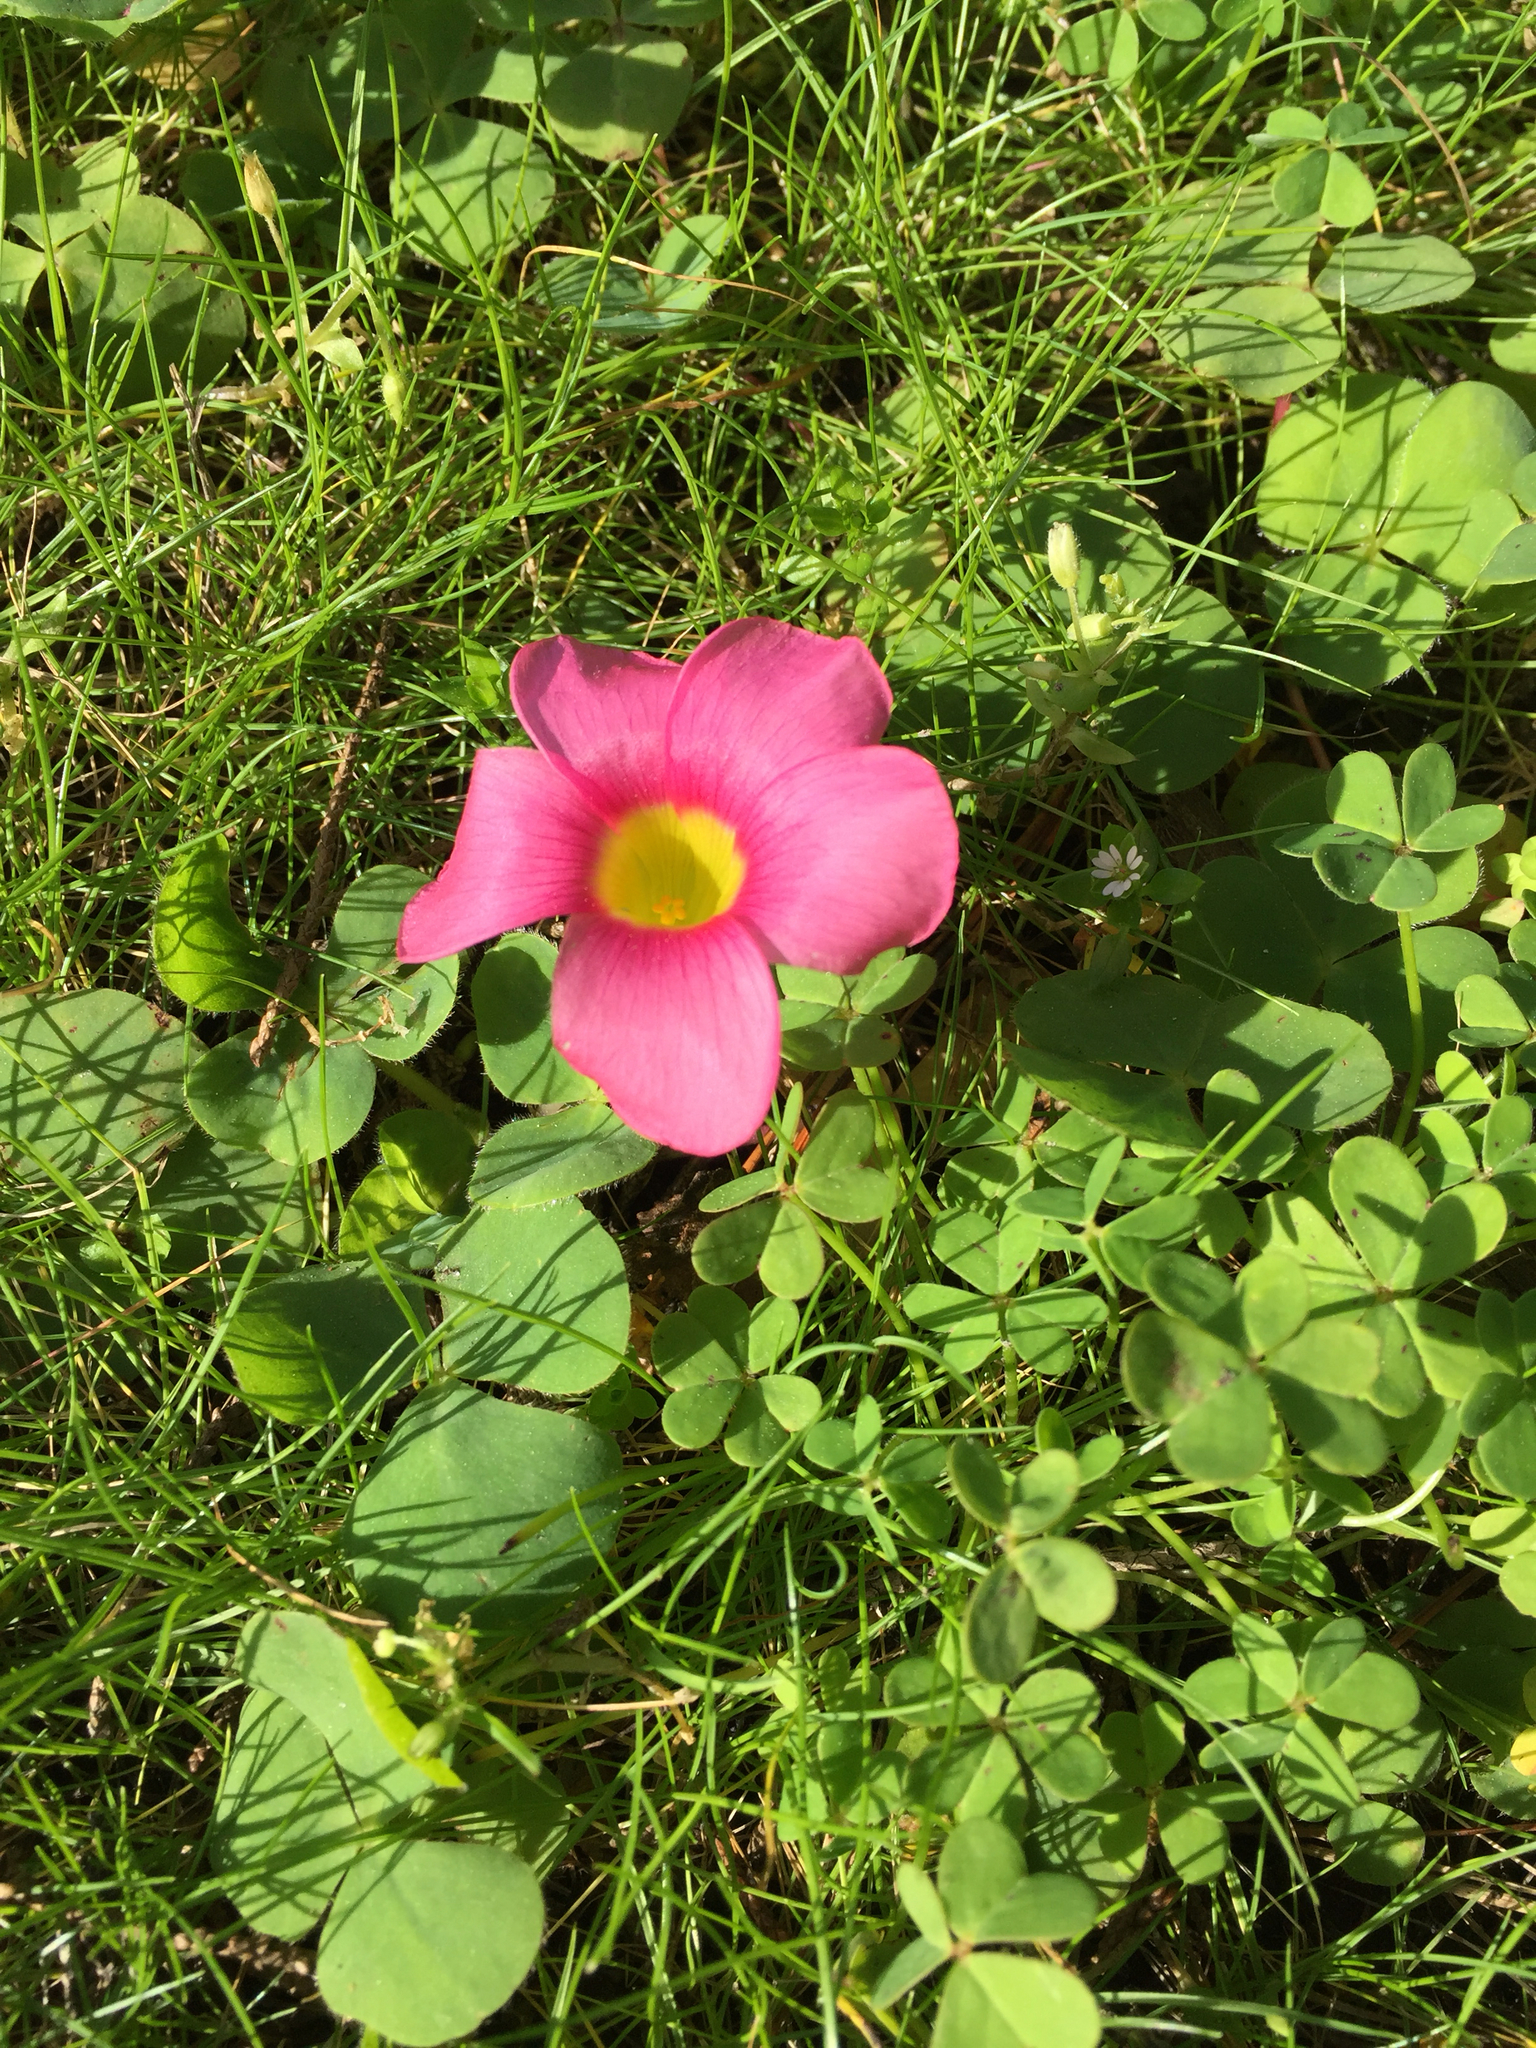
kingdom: Plantae
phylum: Tracheophyta
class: Magnoliopsida
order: Oxalidales
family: Oxalidaceae
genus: Oxalis
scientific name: Oxalis purpurea
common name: Purple woodsorrel
